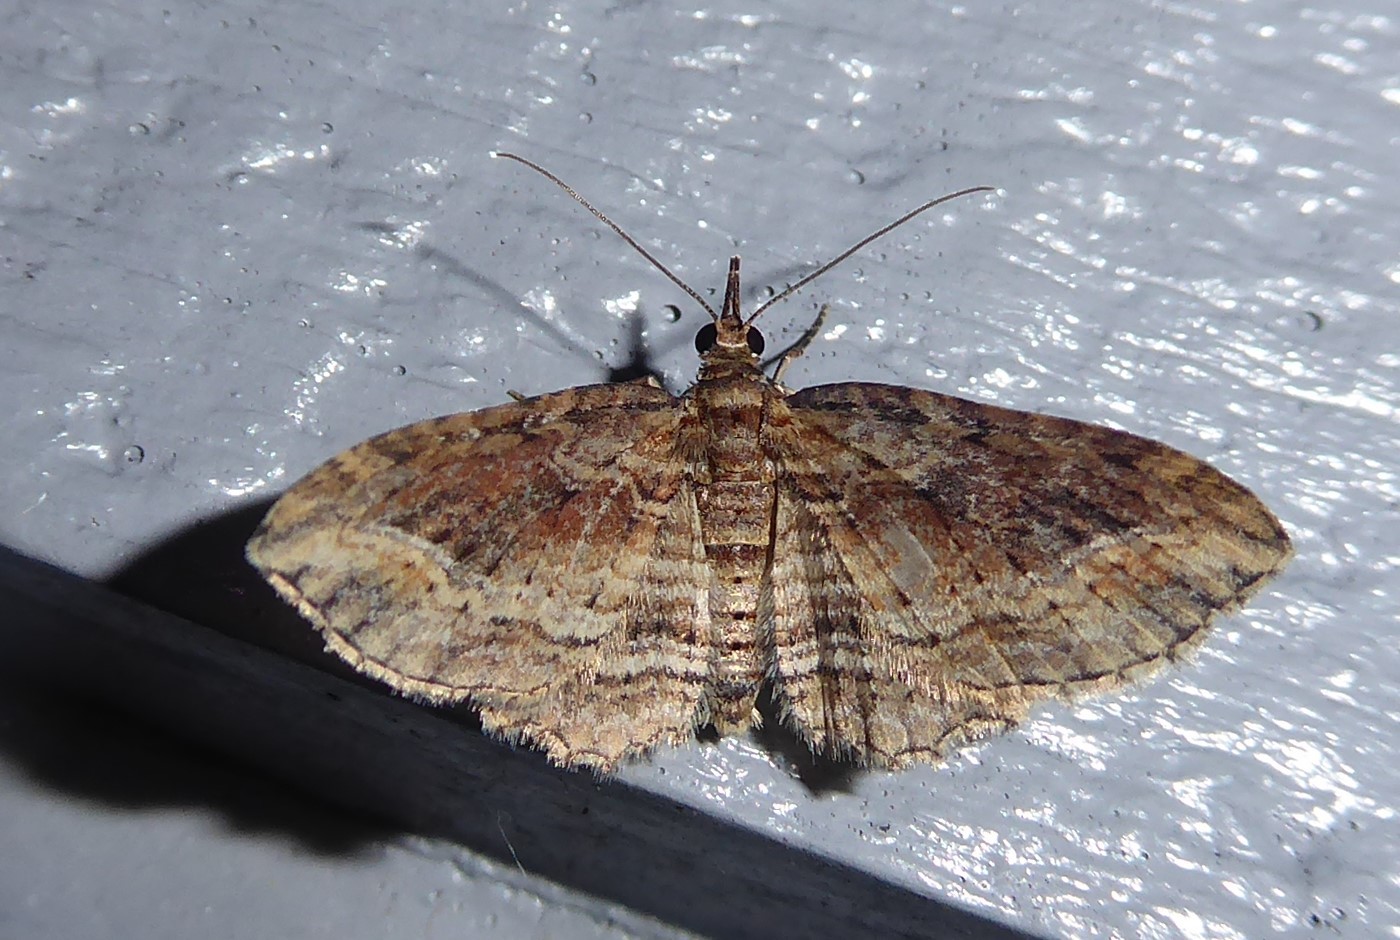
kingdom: Animalia
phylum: Arthropoda
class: Insecta
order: Lepidoptera
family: Geometridae
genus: Chloroclystis
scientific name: Chloroclystis filata
